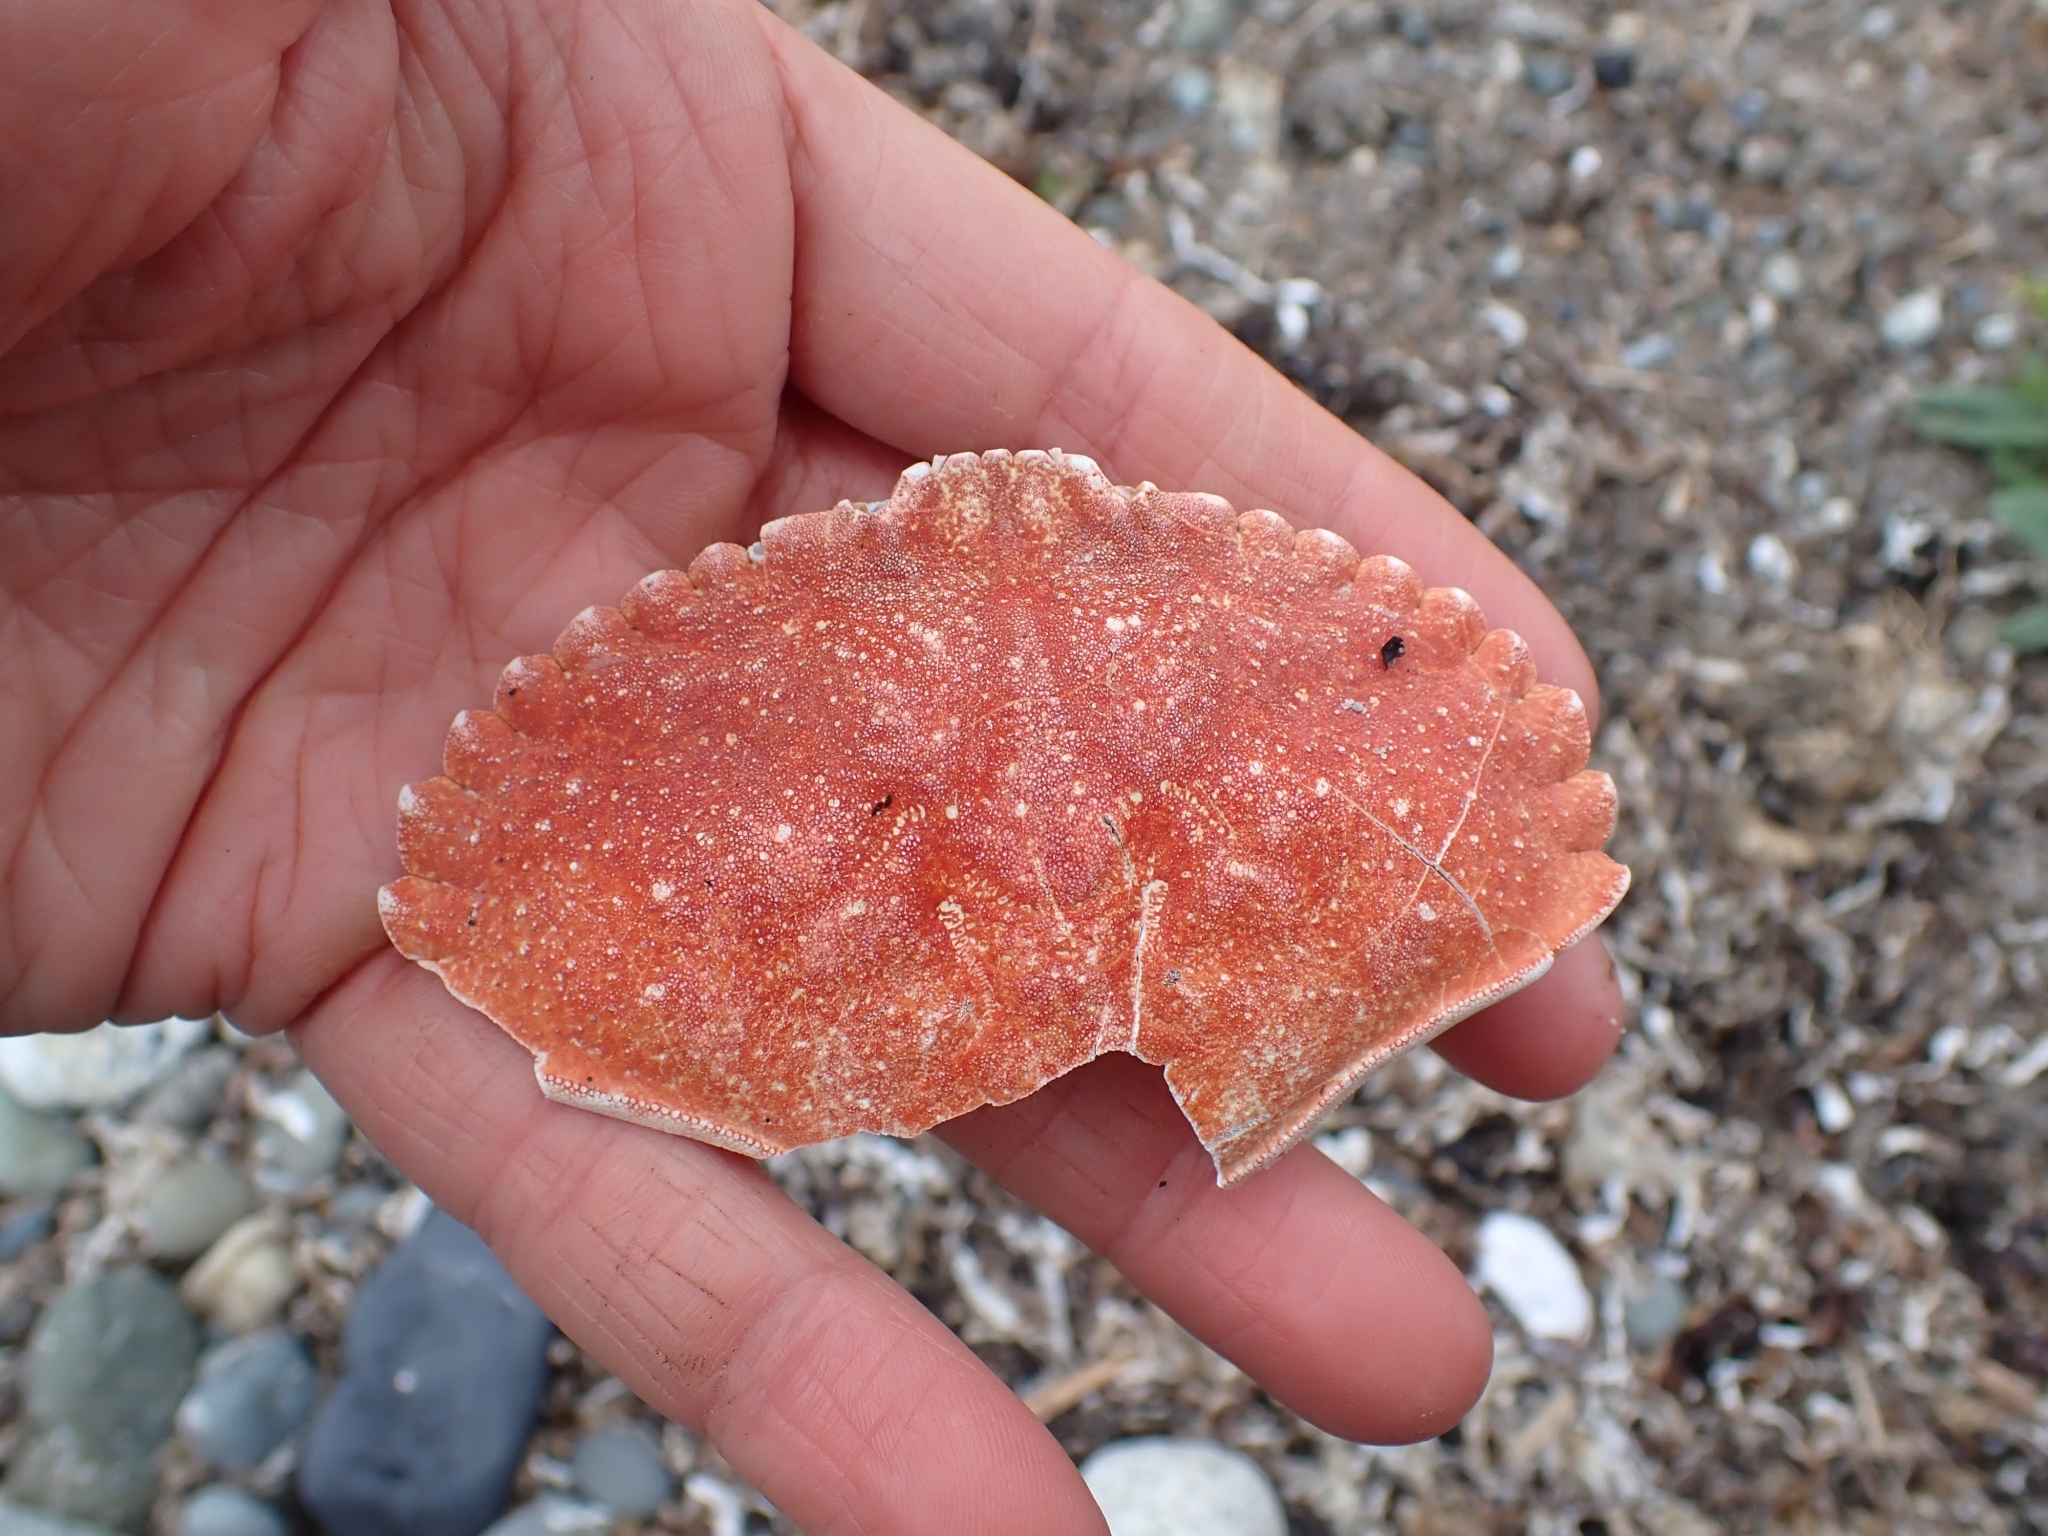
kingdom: Animalia
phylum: Arthropoda
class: Malacostraca
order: Decapoda
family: Cancridae
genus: Cancer
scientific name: Cancer productus
